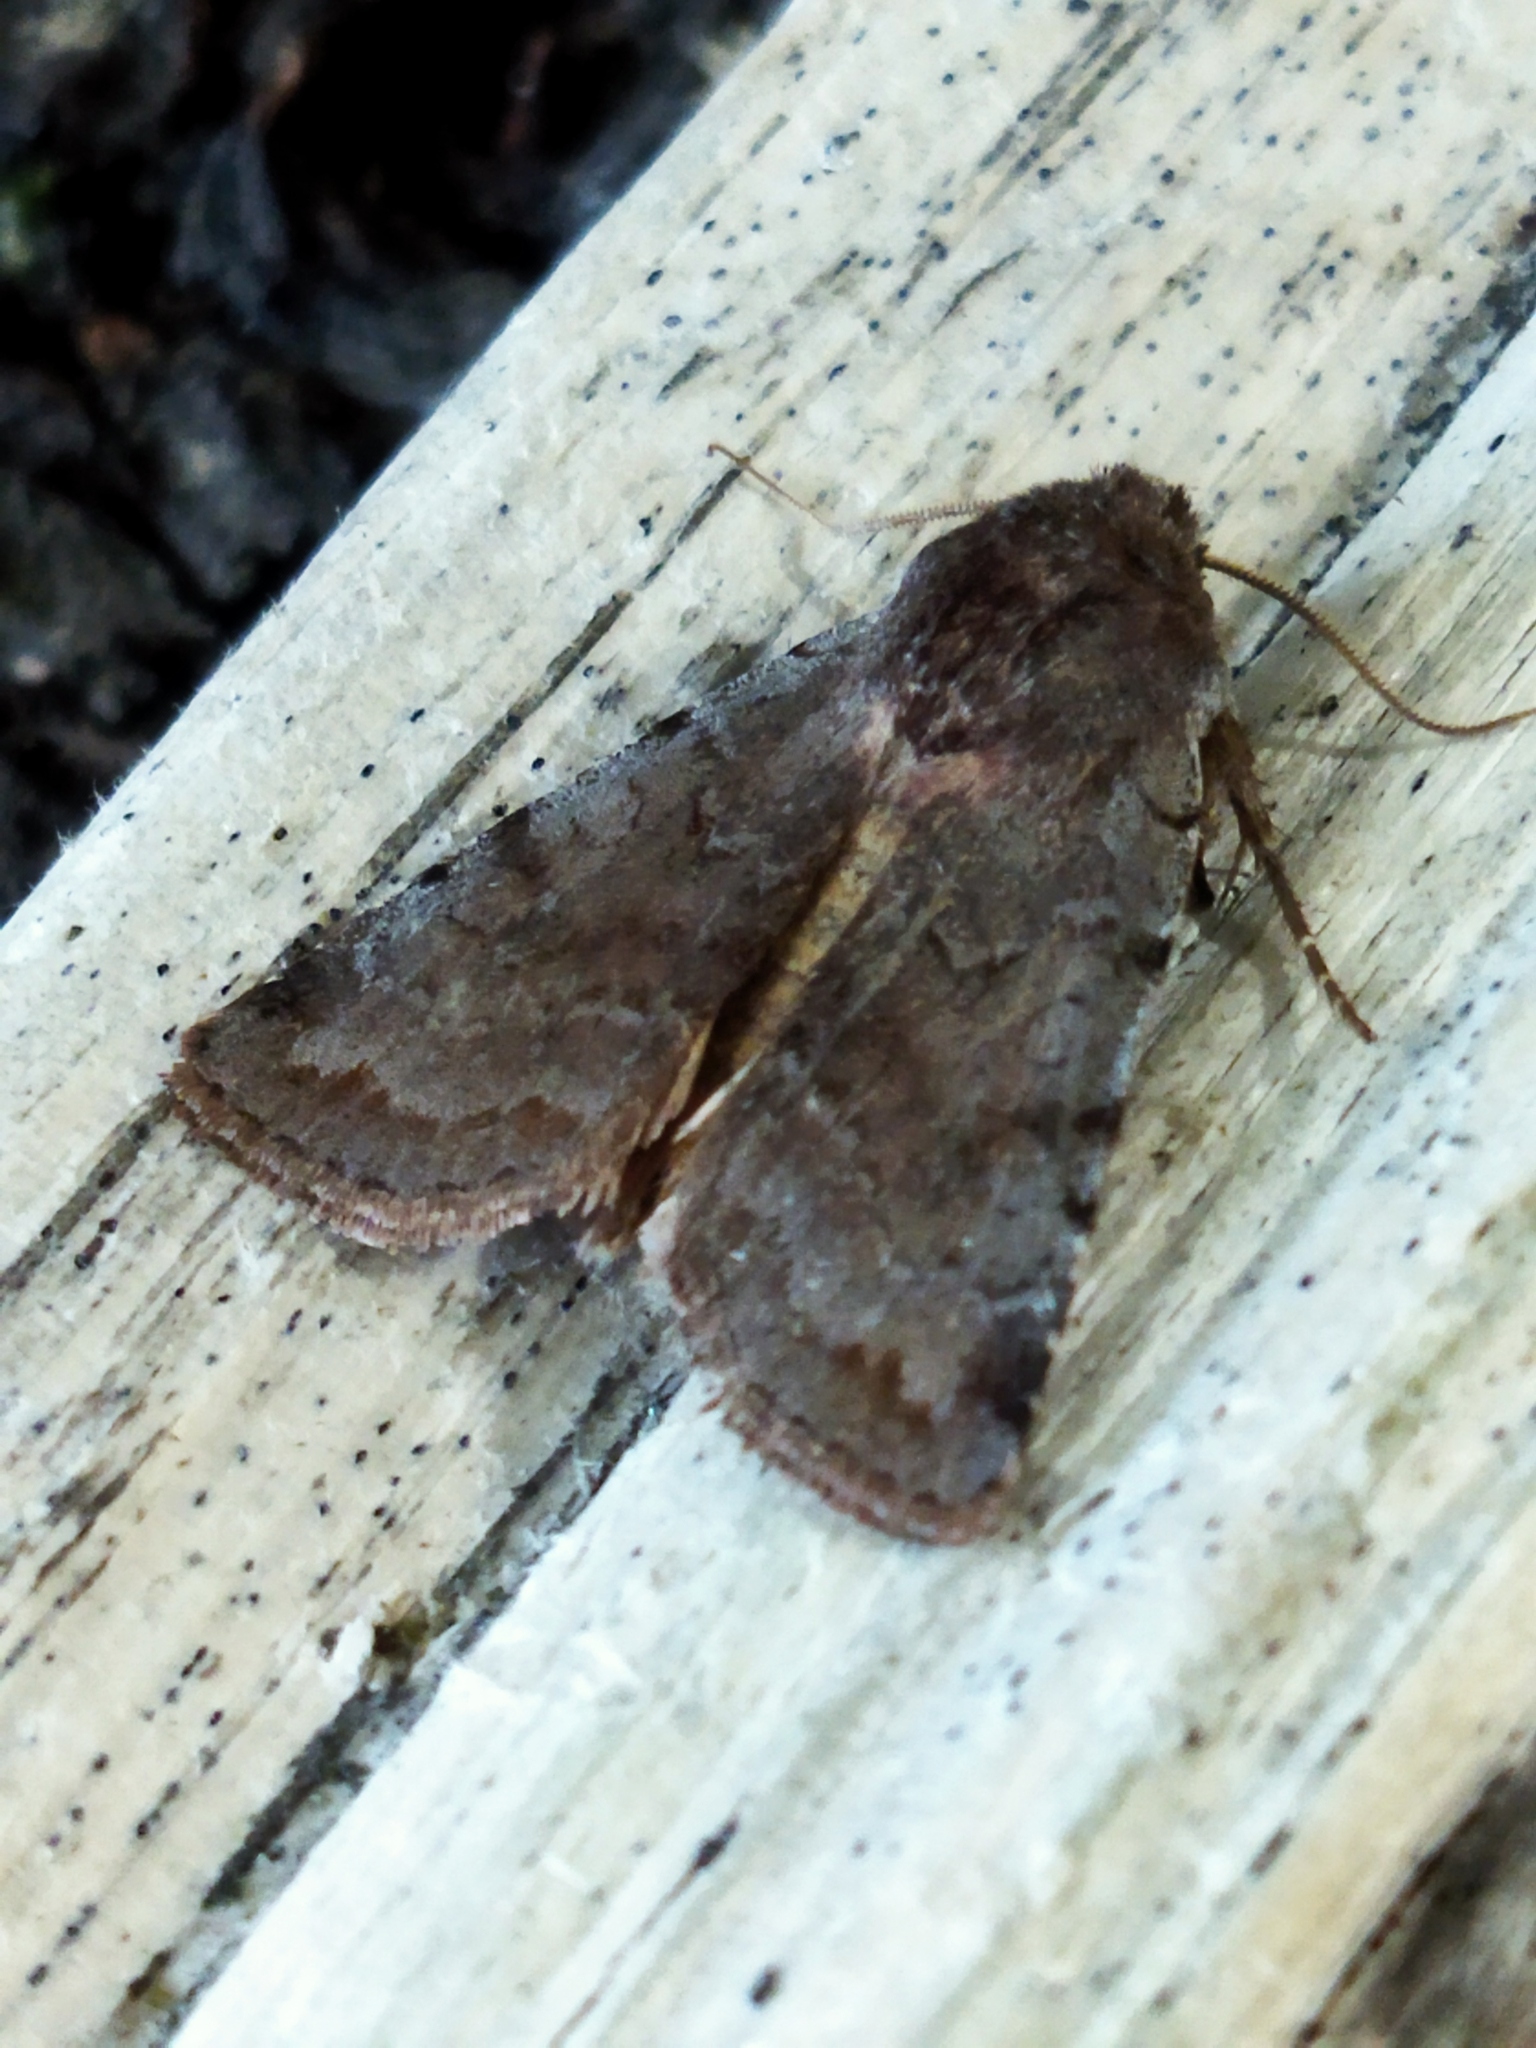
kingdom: Animalia
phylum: Arthropoda
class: Insecta
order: Lepidoptera
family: Noctuidae
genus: Cerastis
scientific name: Cerastis rubricosa
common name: Red chestnut
